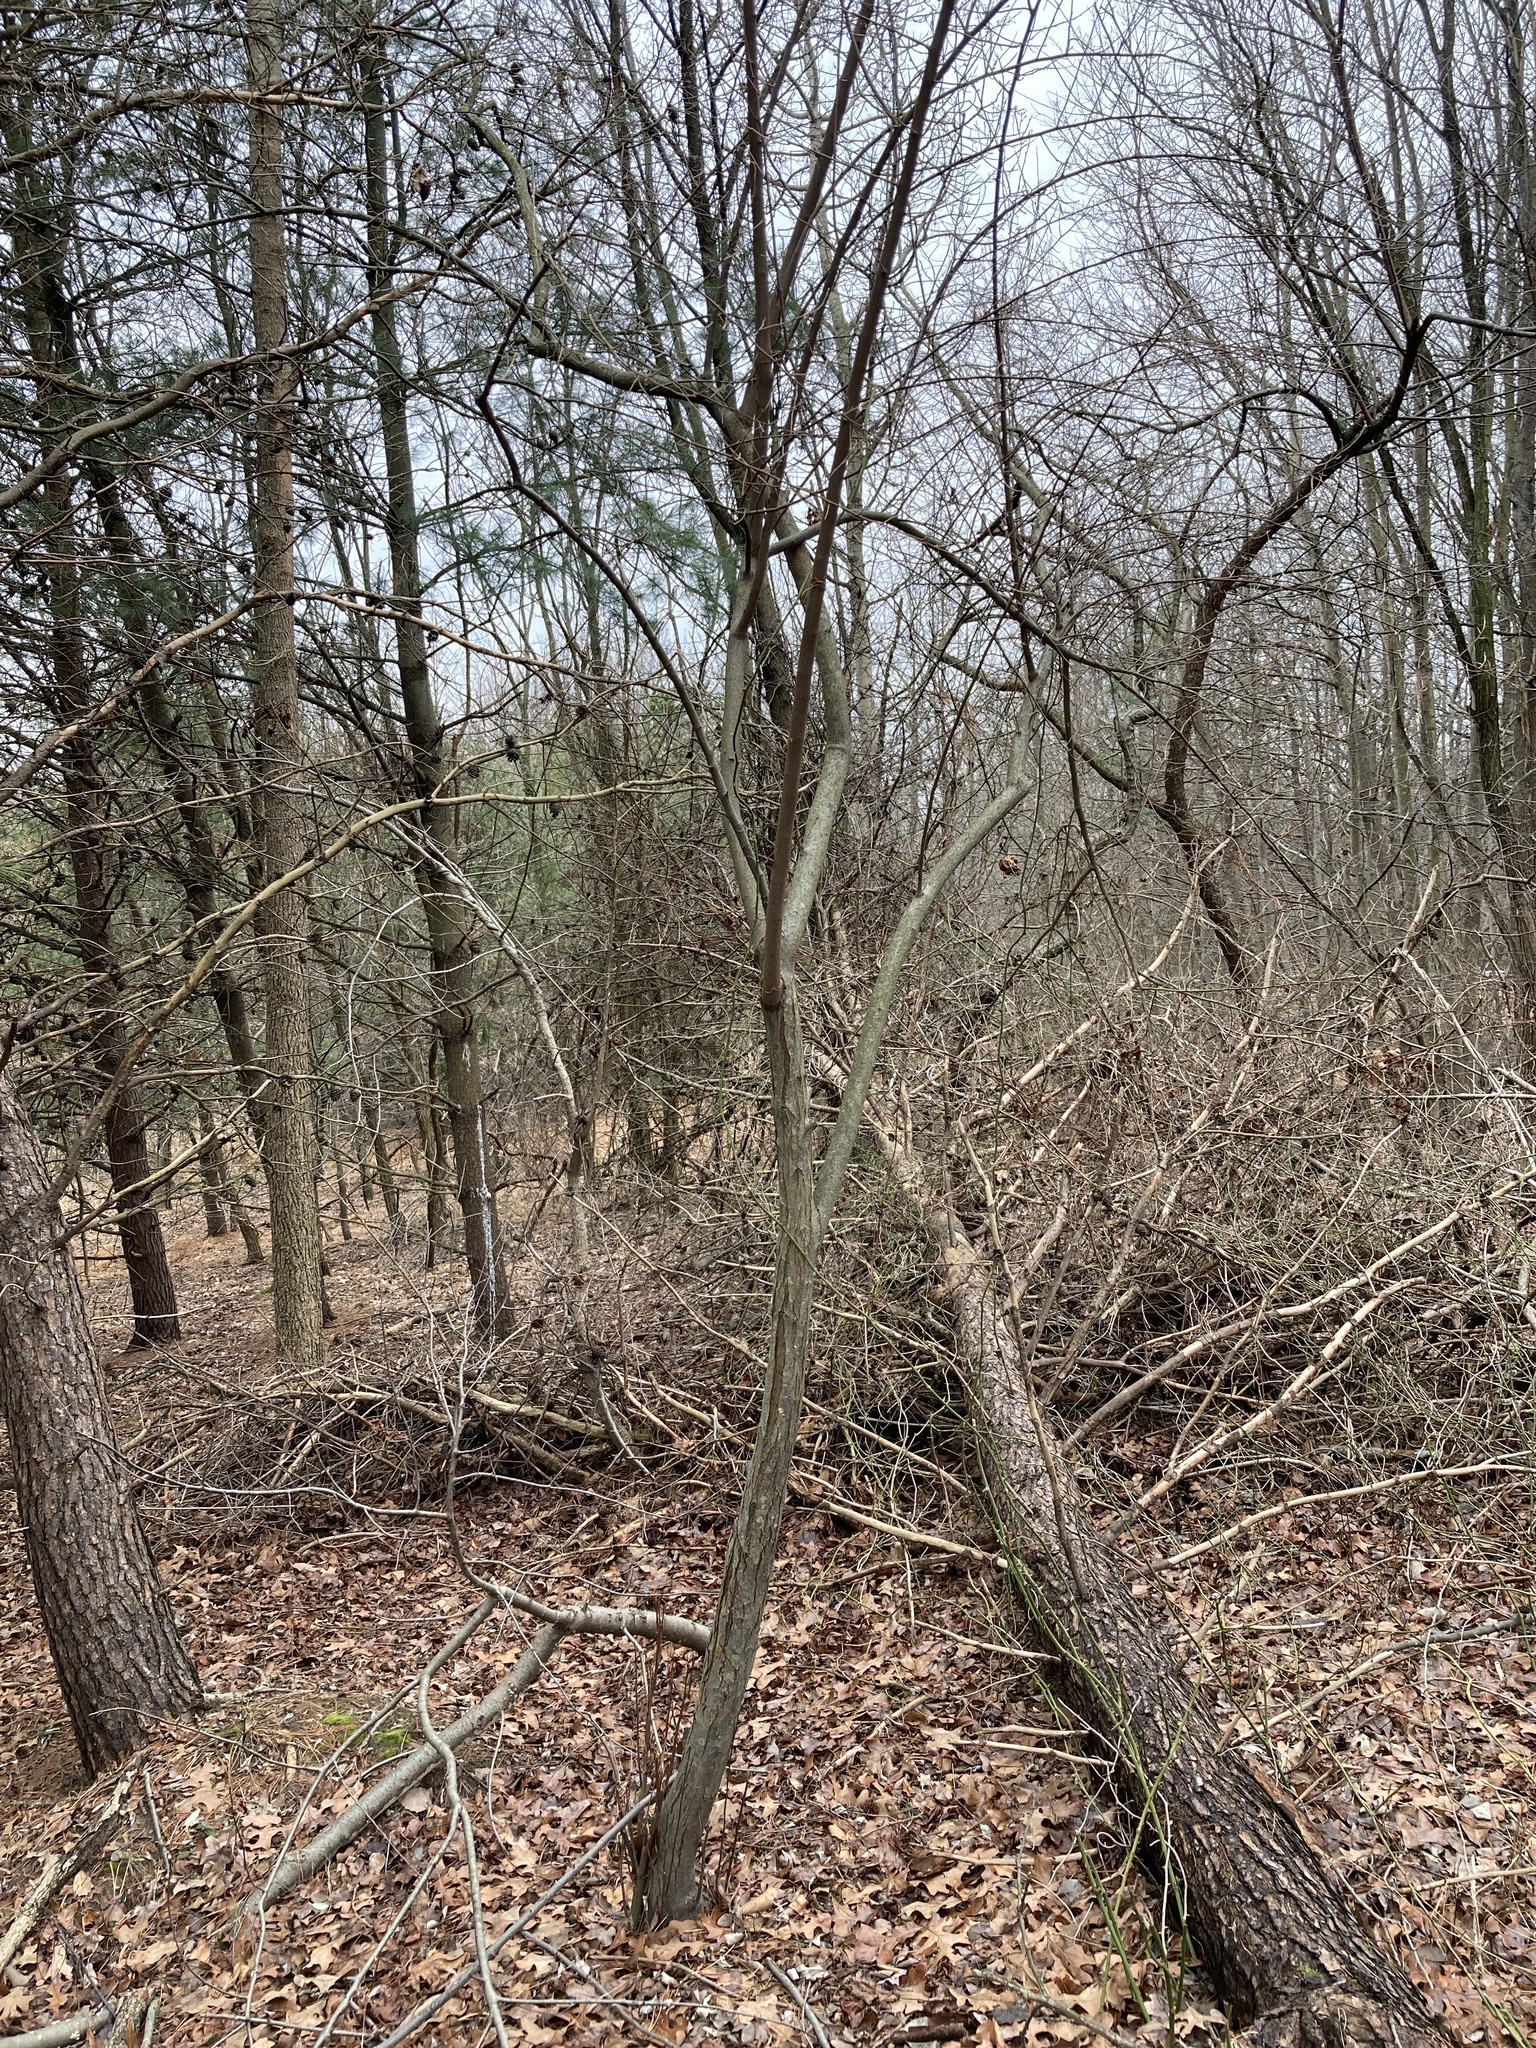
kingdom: Plantae
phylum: Tracheophyta
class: Magnoliopsida
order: Rosales
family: Elaeagnaceae
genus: Elaeagnus
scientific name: Elaeagnus umbellata
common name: Autumn olive
